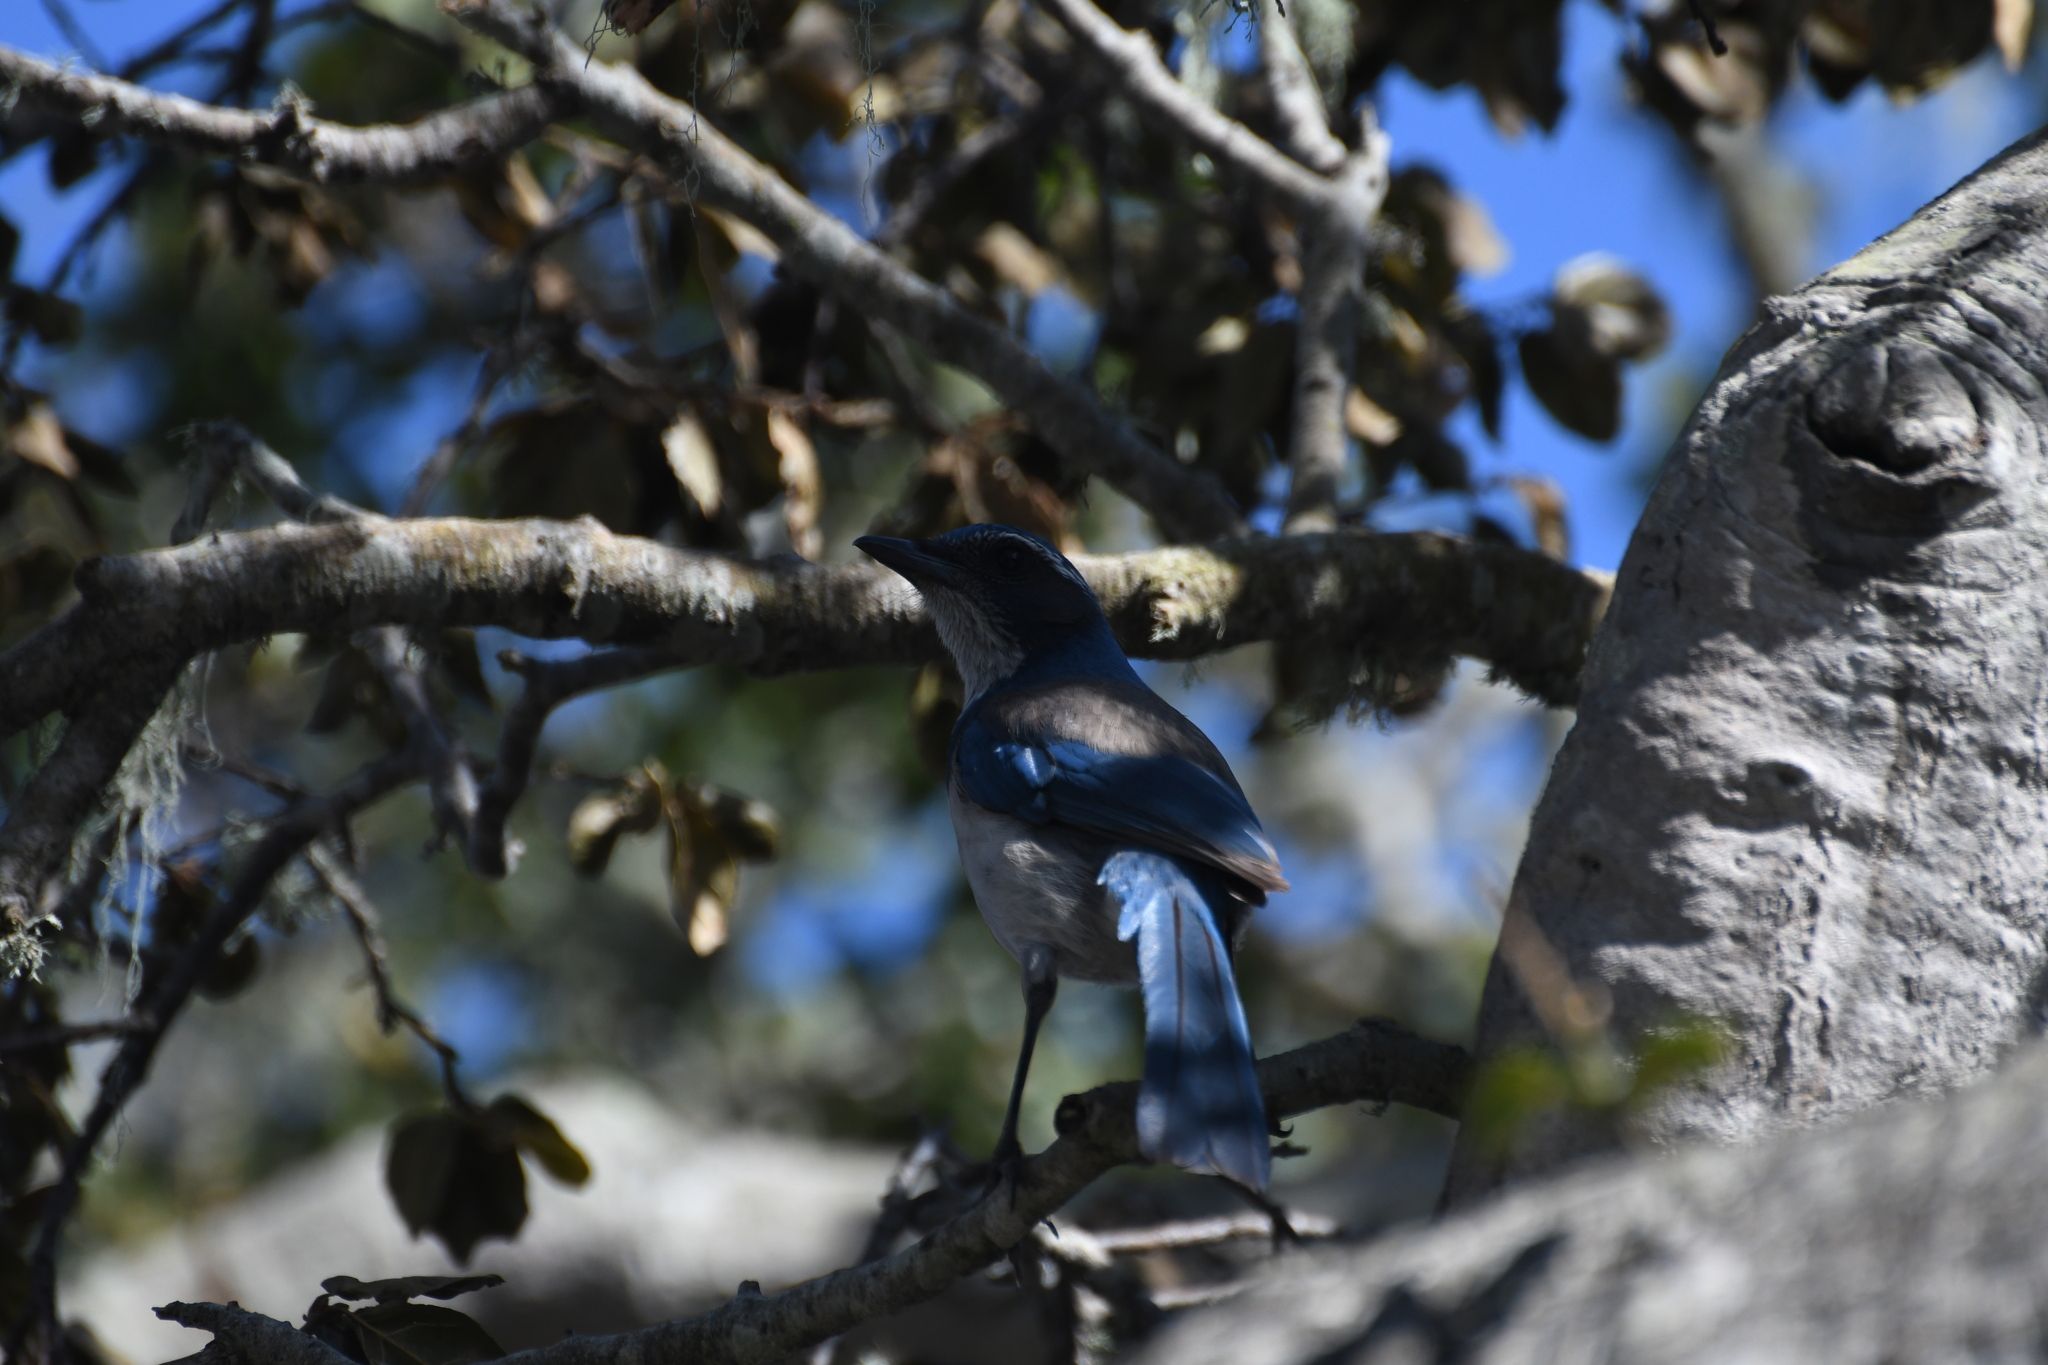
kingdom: Animalia
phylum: Chordata
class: Aves
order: Passeriformes
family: Corvidae
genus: Aphelocoma
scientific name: Aphelocoma californica
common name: California scrub-jay
